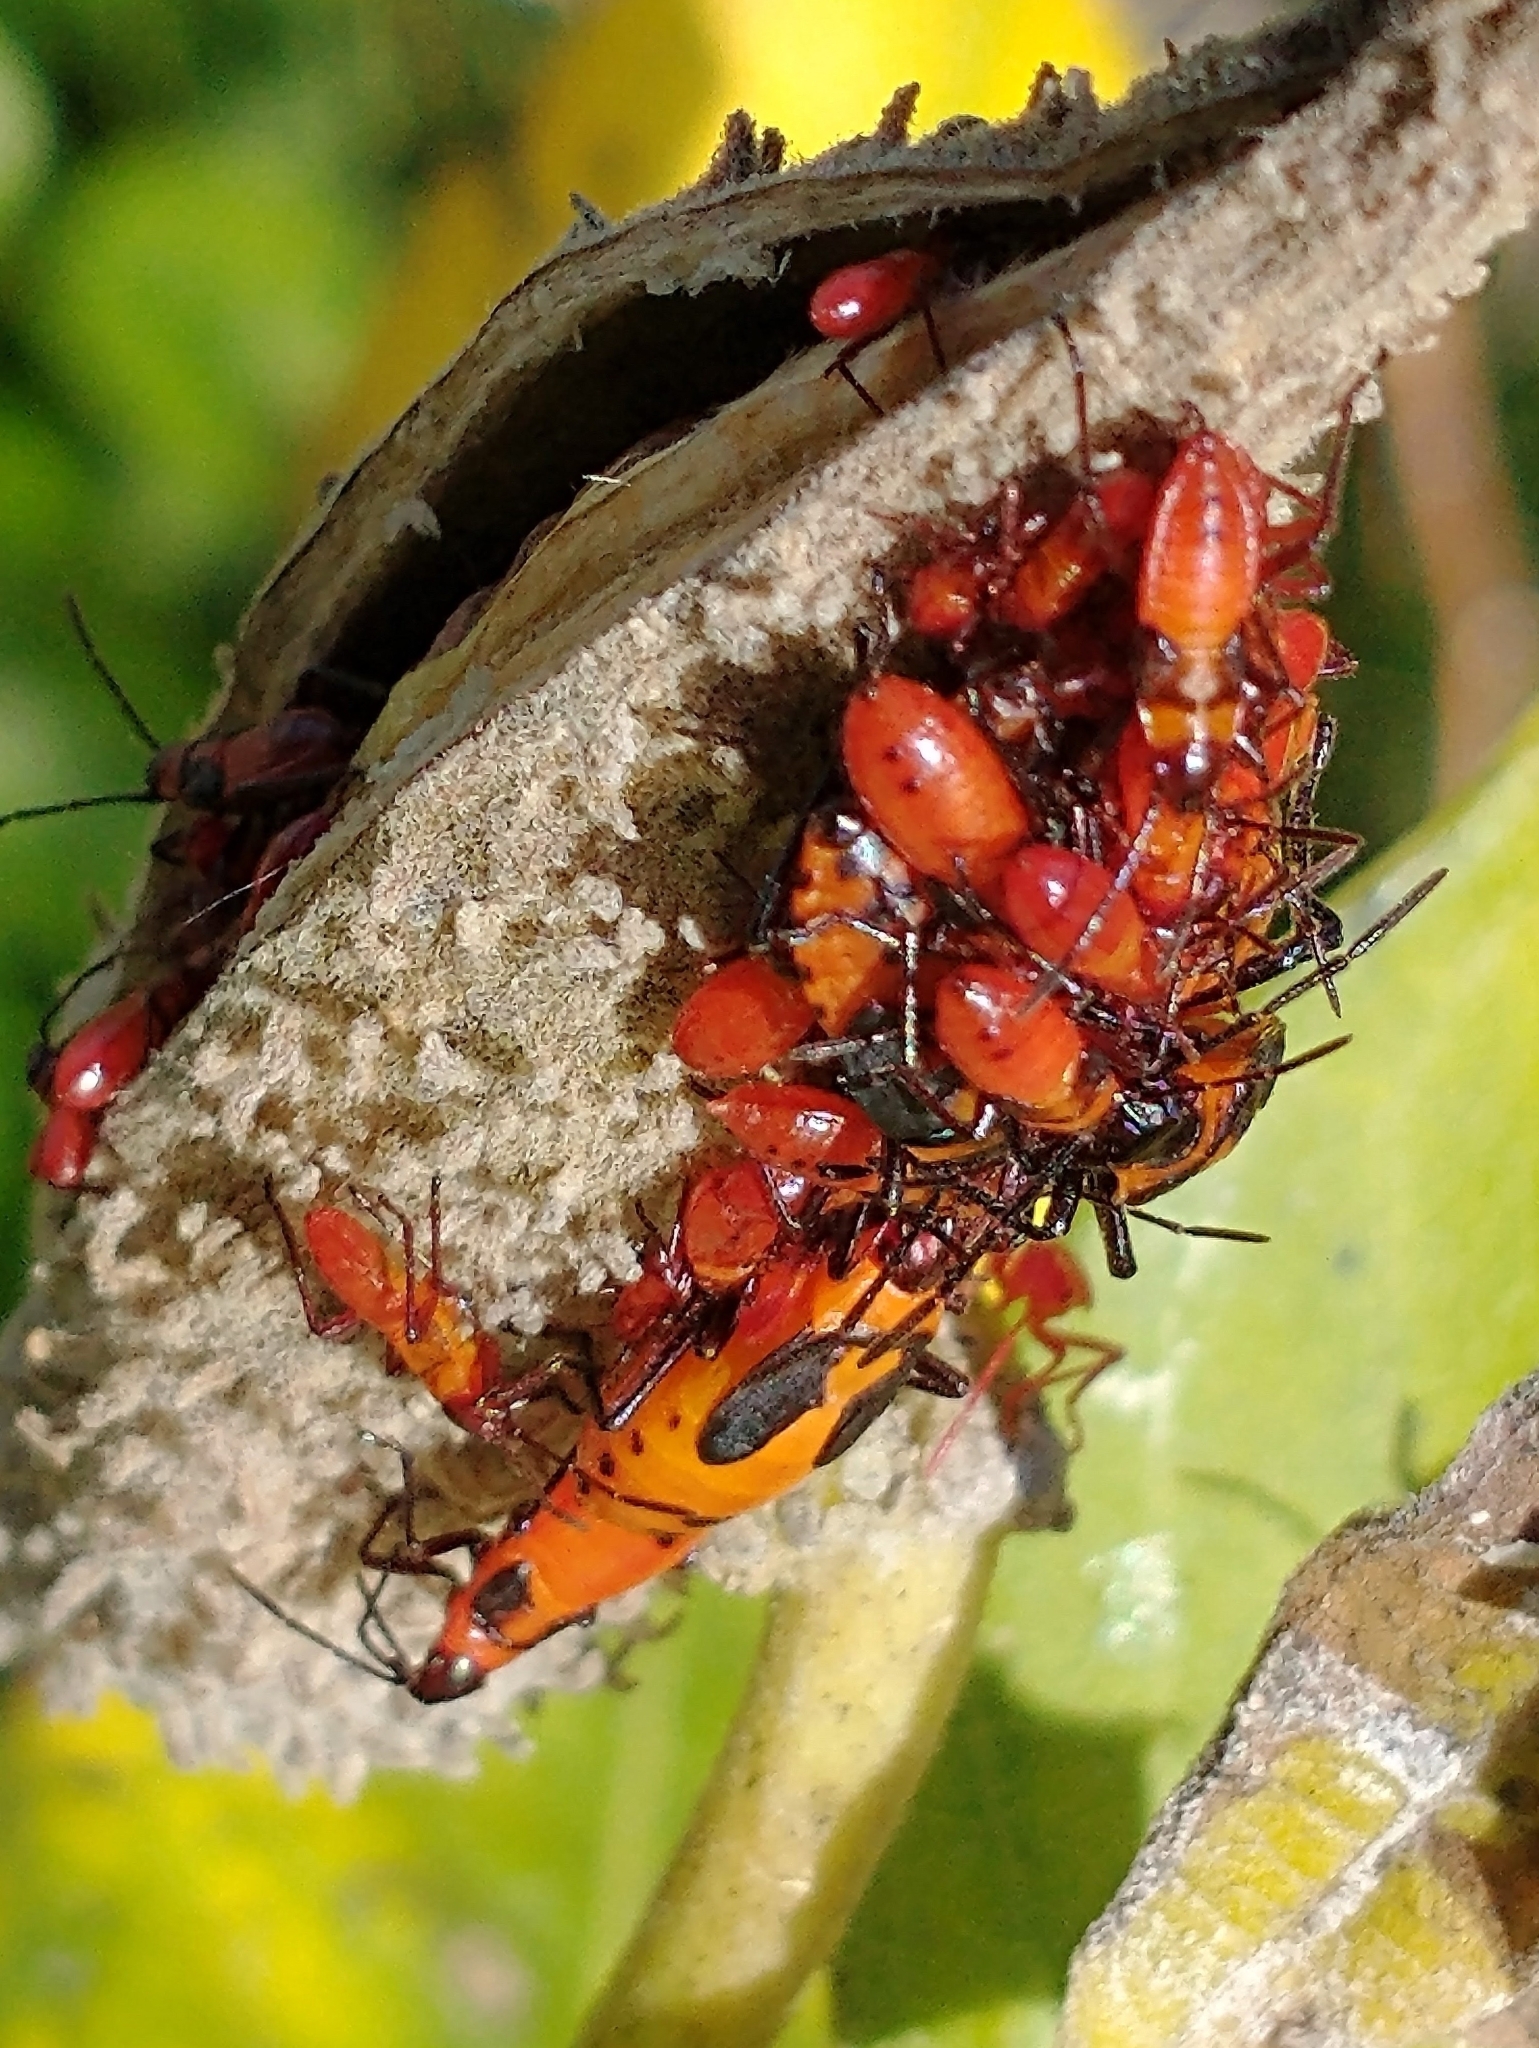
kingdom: Animalia
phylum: Arthropoda
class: Insecta
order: Hemiptera
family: Lygaeidae
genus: Oncopeltus
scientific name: Oncopeltus fasciatus
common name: Large milkweed bug
